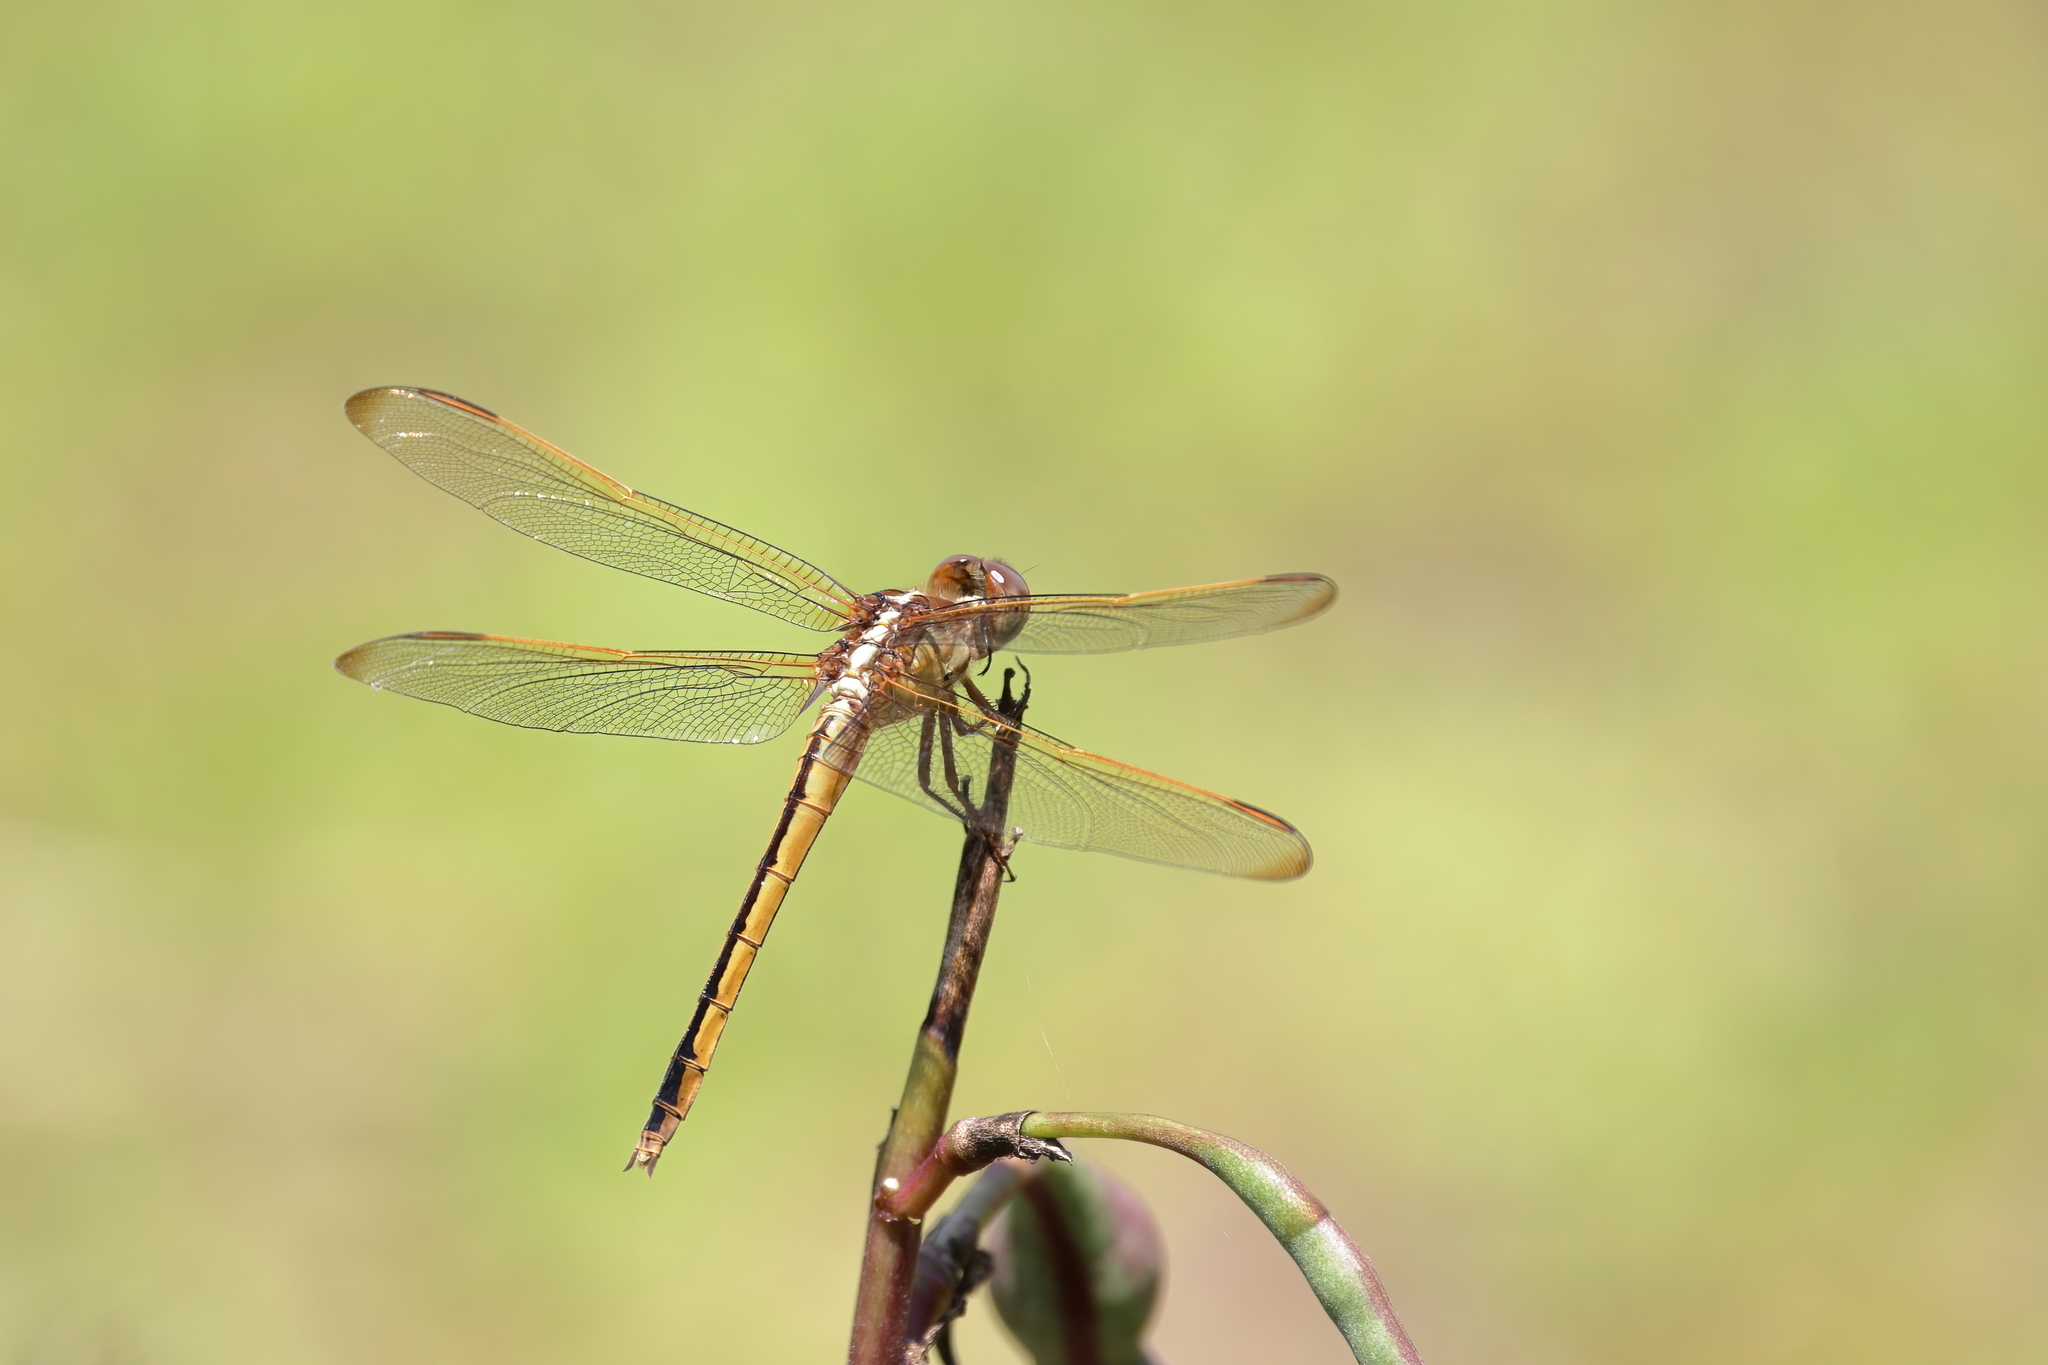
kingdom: Animalia
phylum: Arthropoda
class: Insecta
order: Odonata
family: Libellulidae
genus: Libellula
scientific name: Libellula needhami
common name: Needham's skimmer
